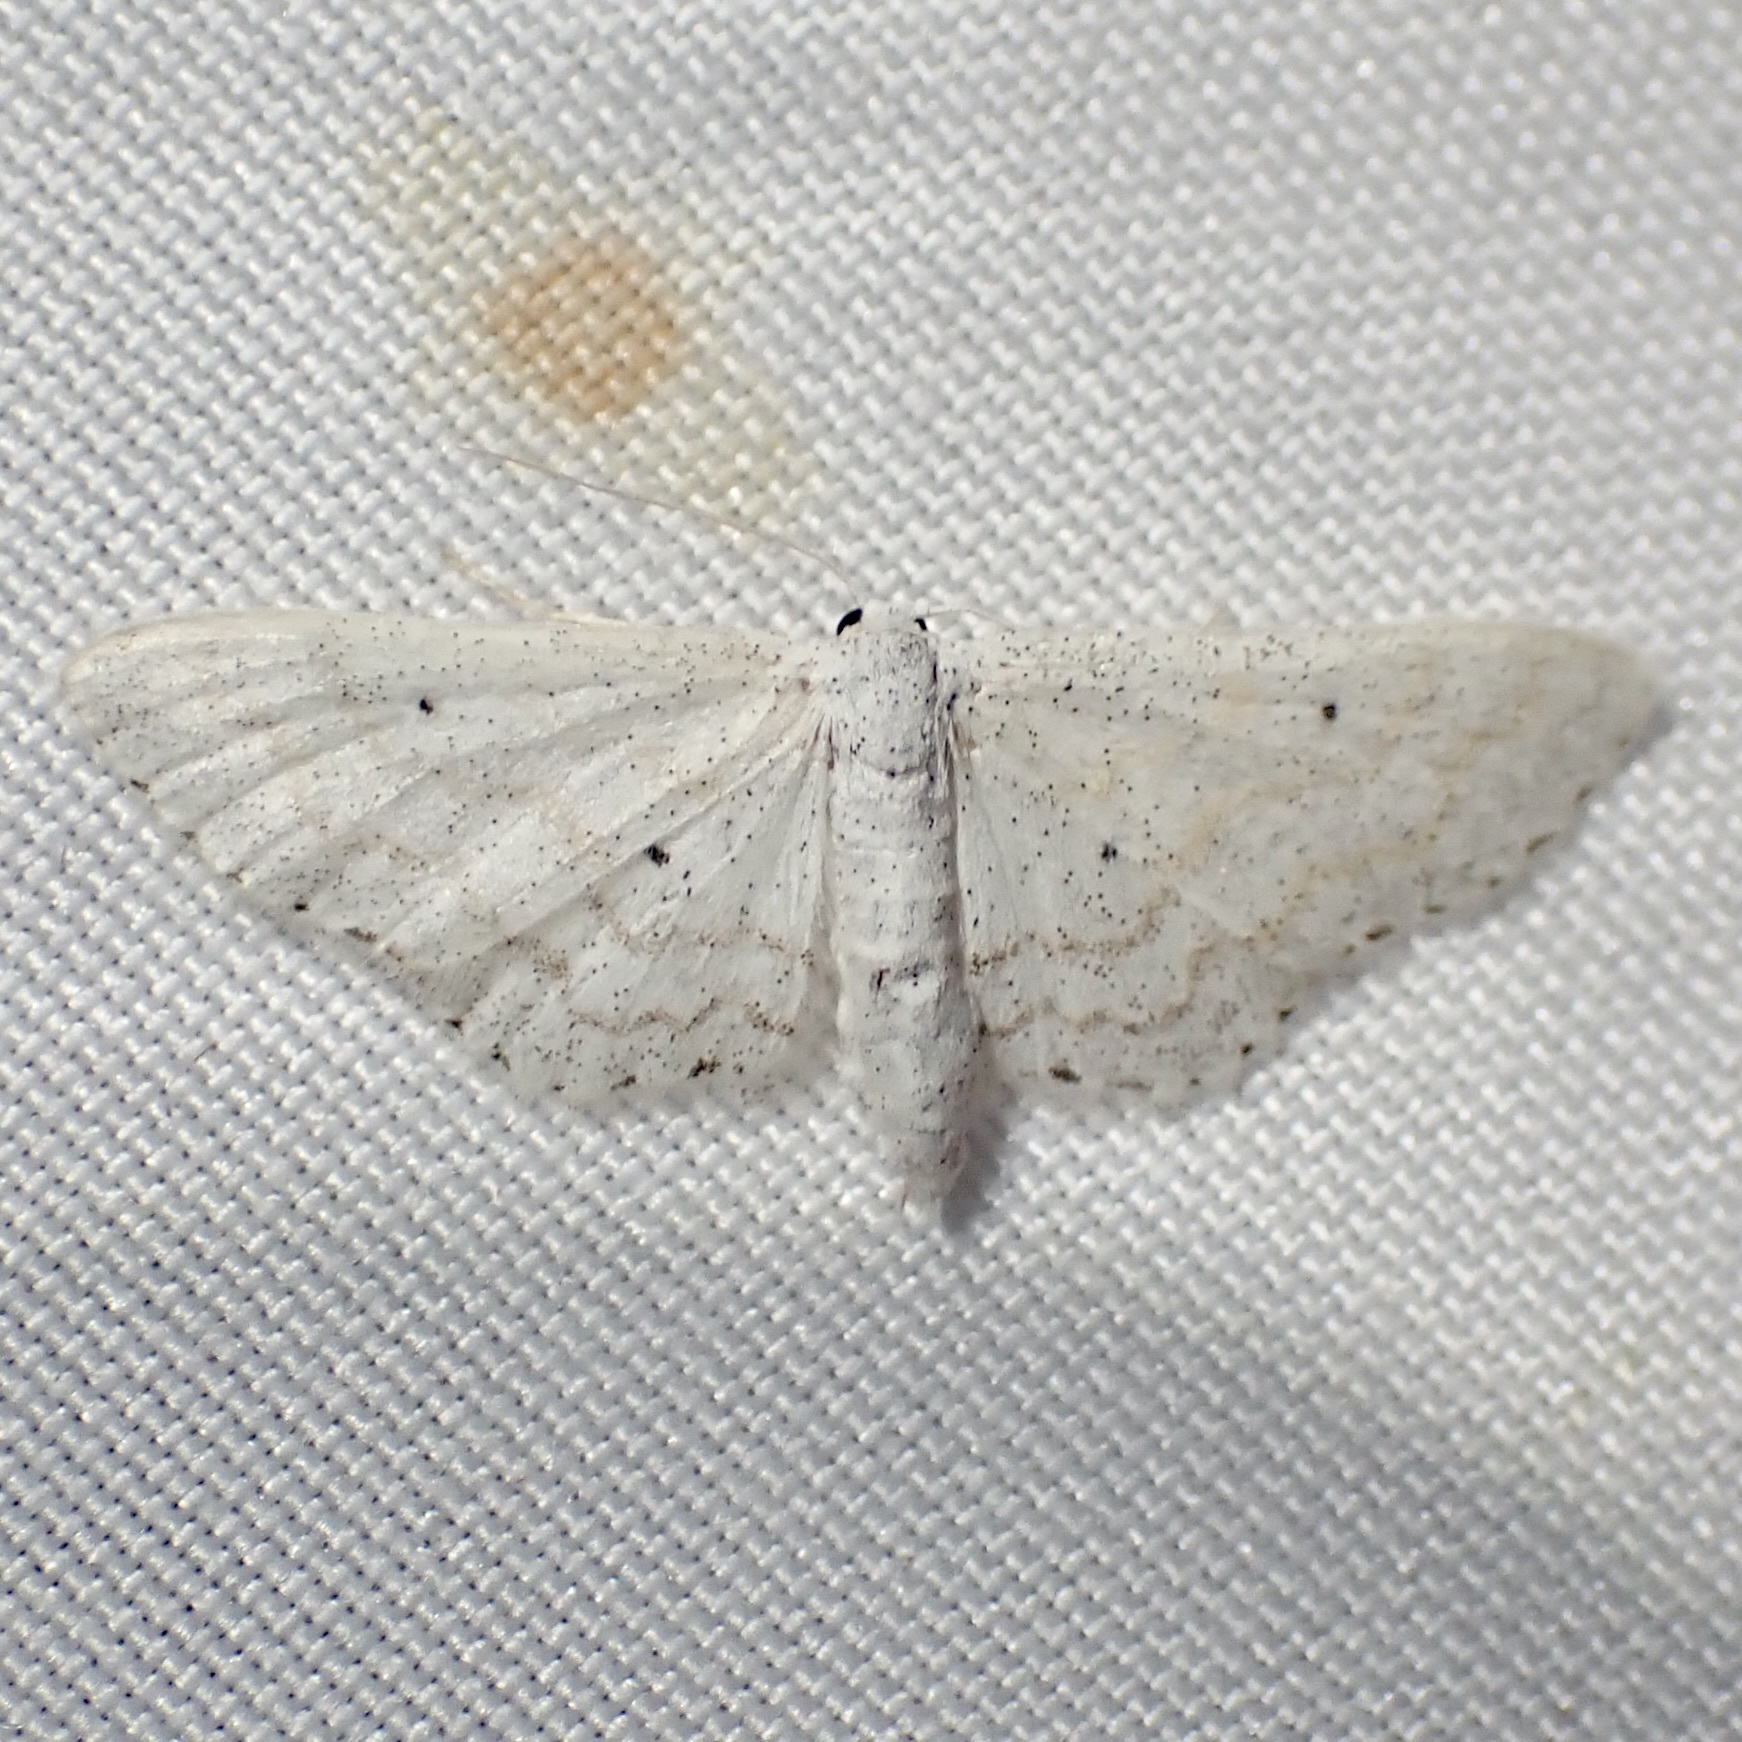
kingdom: Animalia
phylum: Arthropoda
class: Insecta
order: Lepidoptera
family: Geometridae
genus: Lobocleta
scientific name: Lobocleta peralbata
